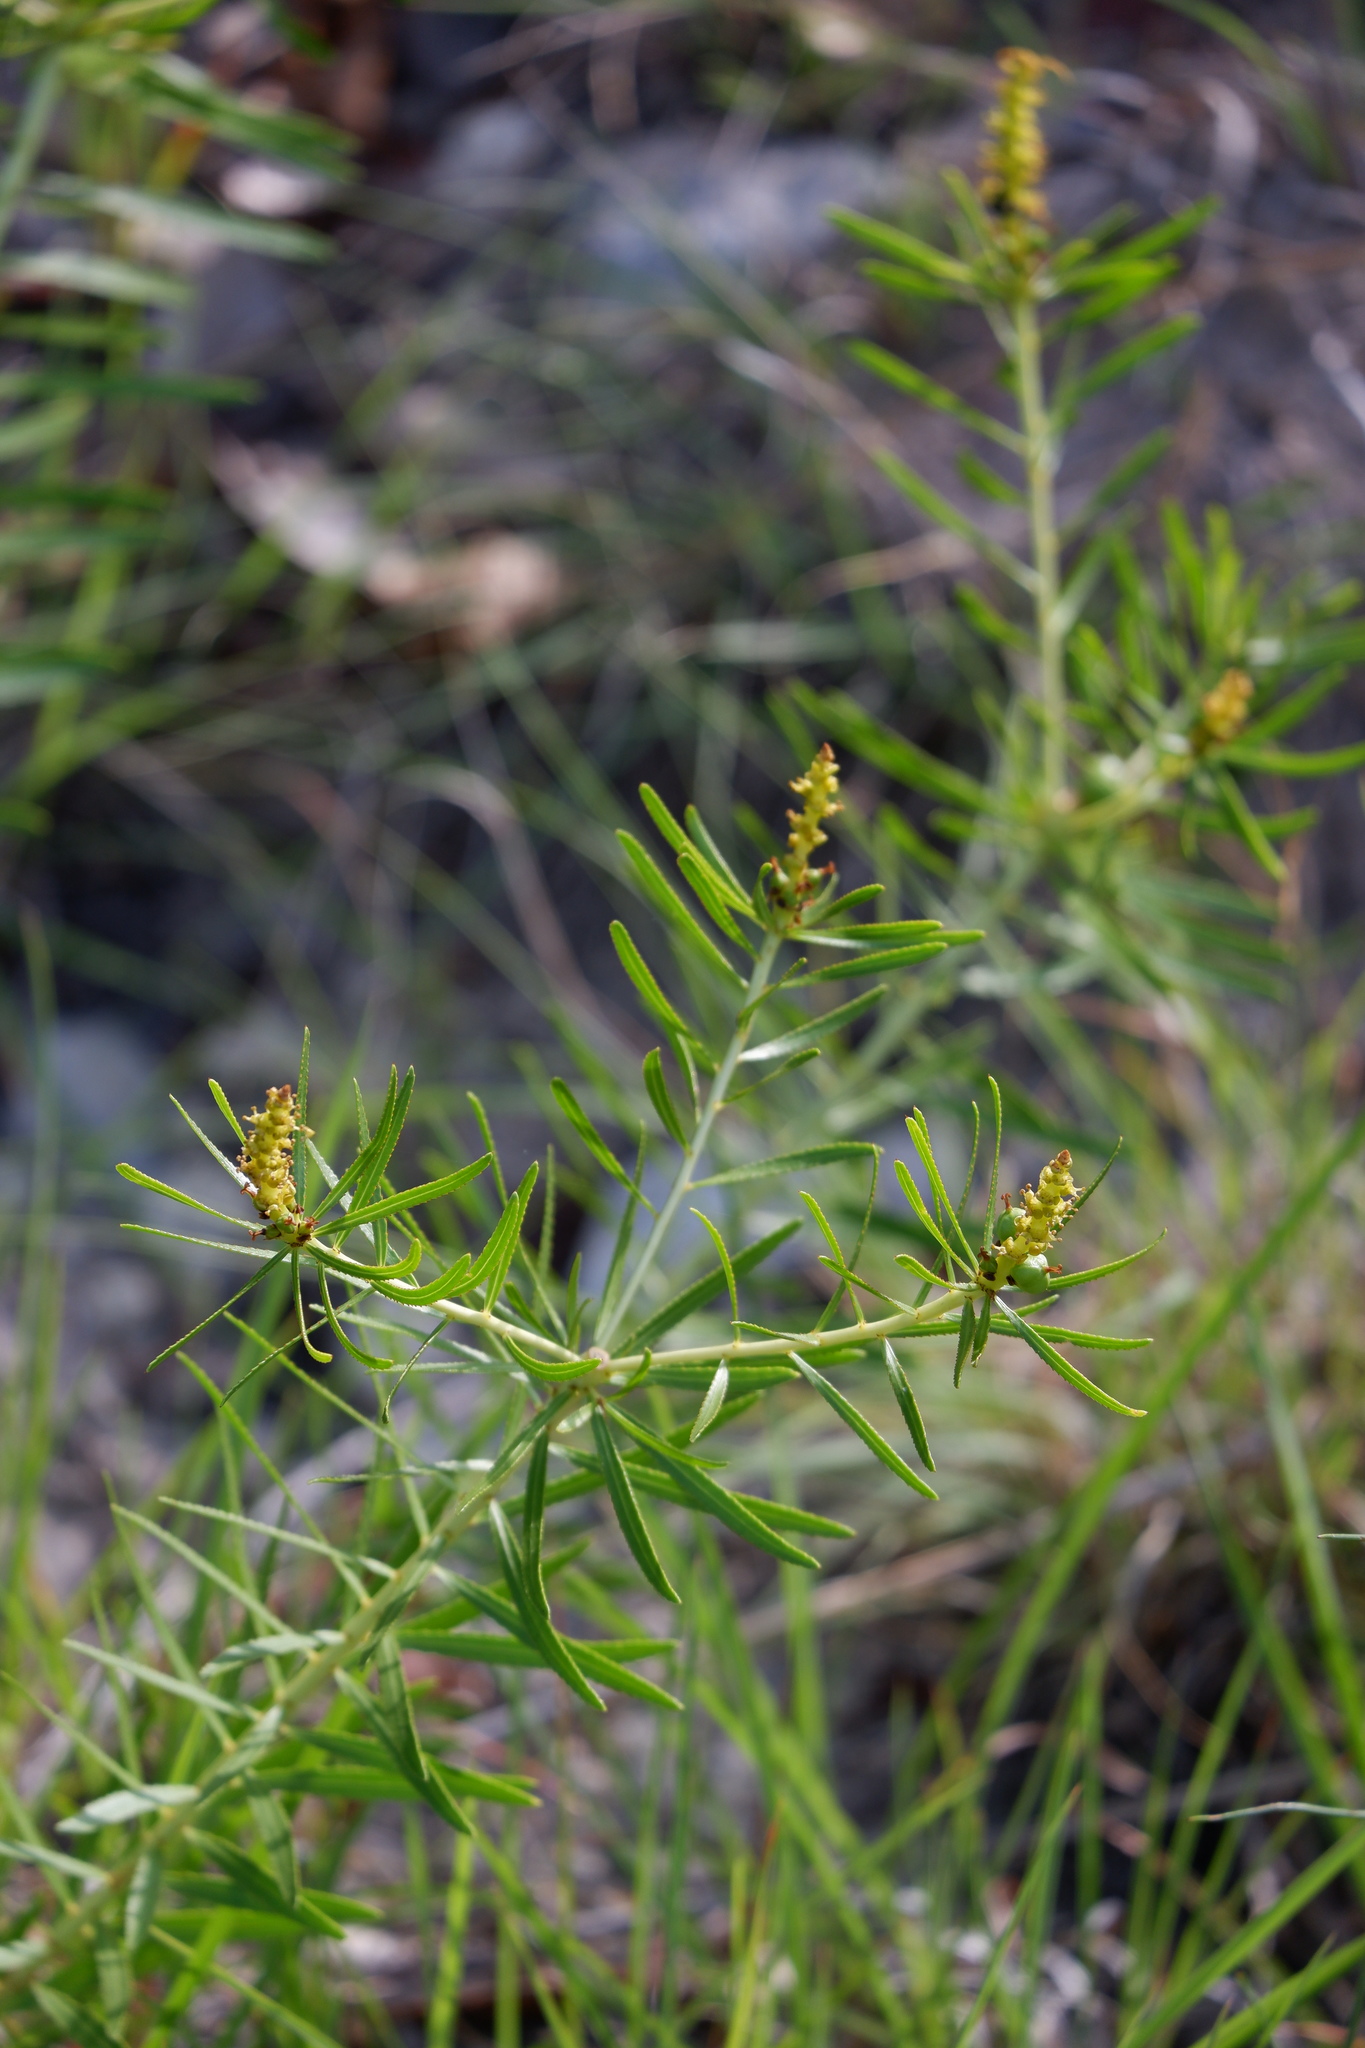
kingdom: Plantae
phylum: Tracheophyta
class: Magnoliopsida
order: Malpighiales
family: Euphorbiaceae
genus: Stillingia
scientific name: Stillingia texana
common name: Texas stillingia
